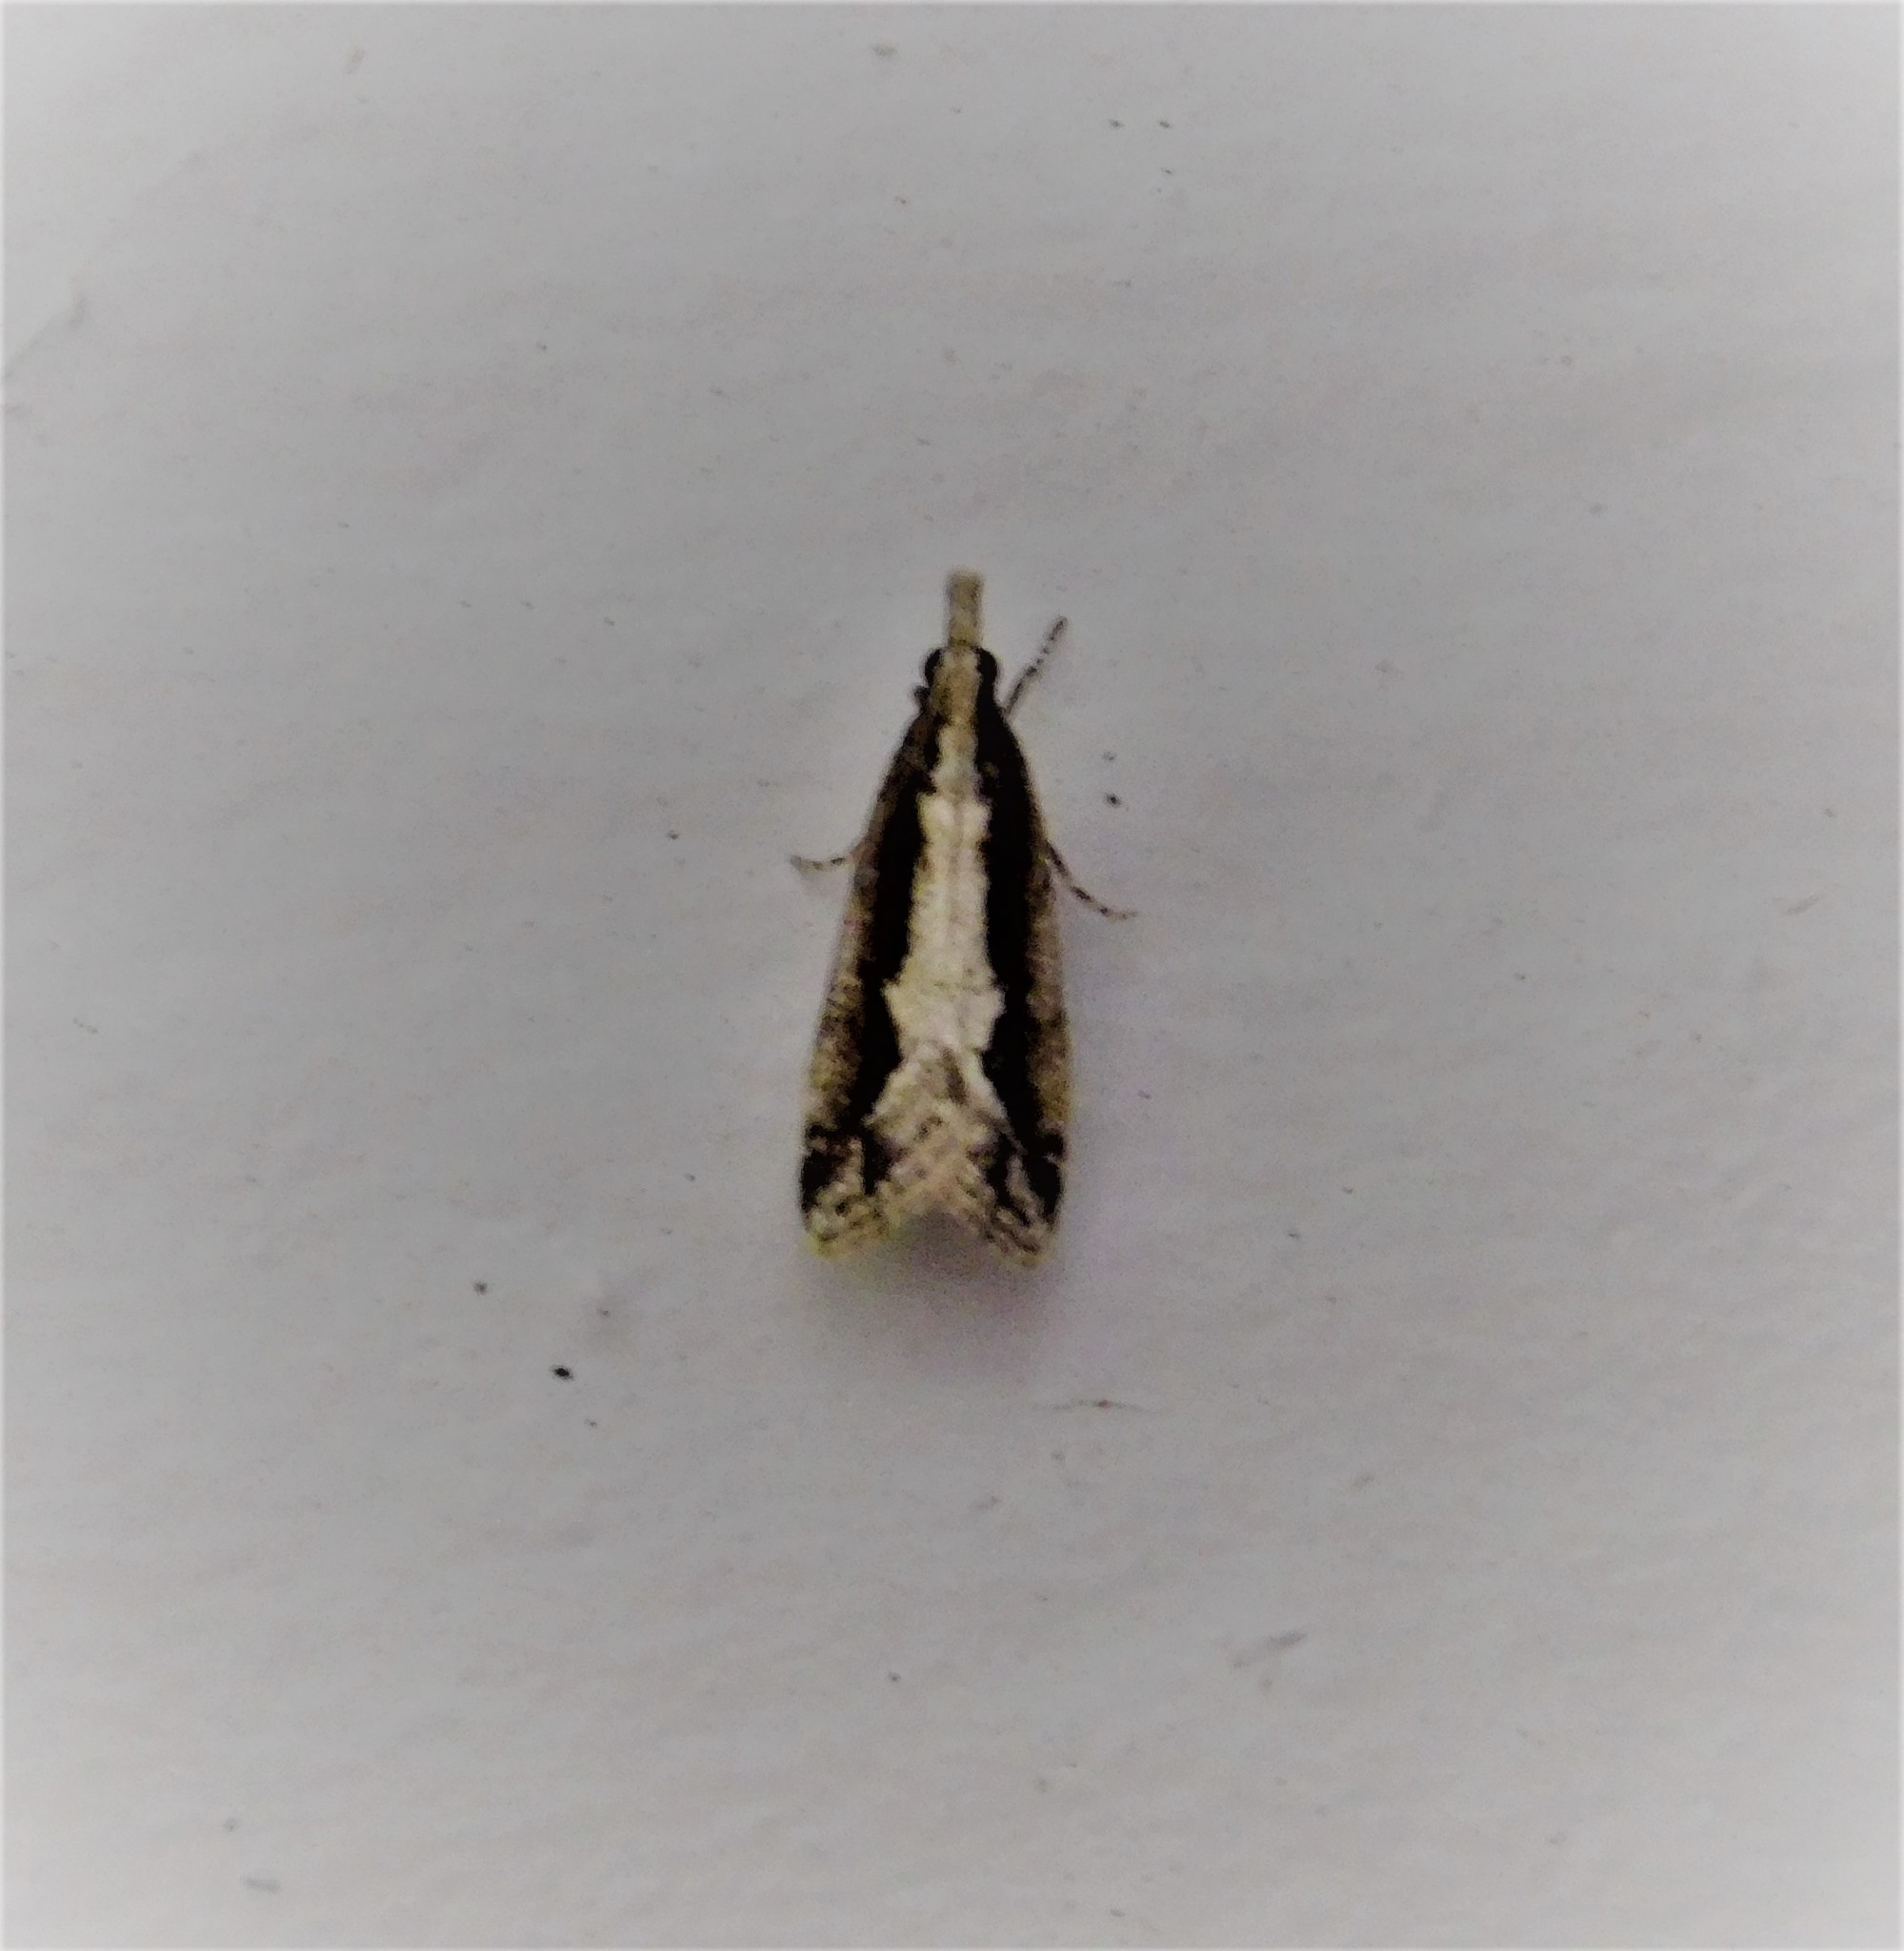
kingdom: Animalia
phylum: Arthropoda
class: Insecta
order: Lepidoptera
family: Crambidae
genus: Eudonia
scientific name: Eudonia steropaea
